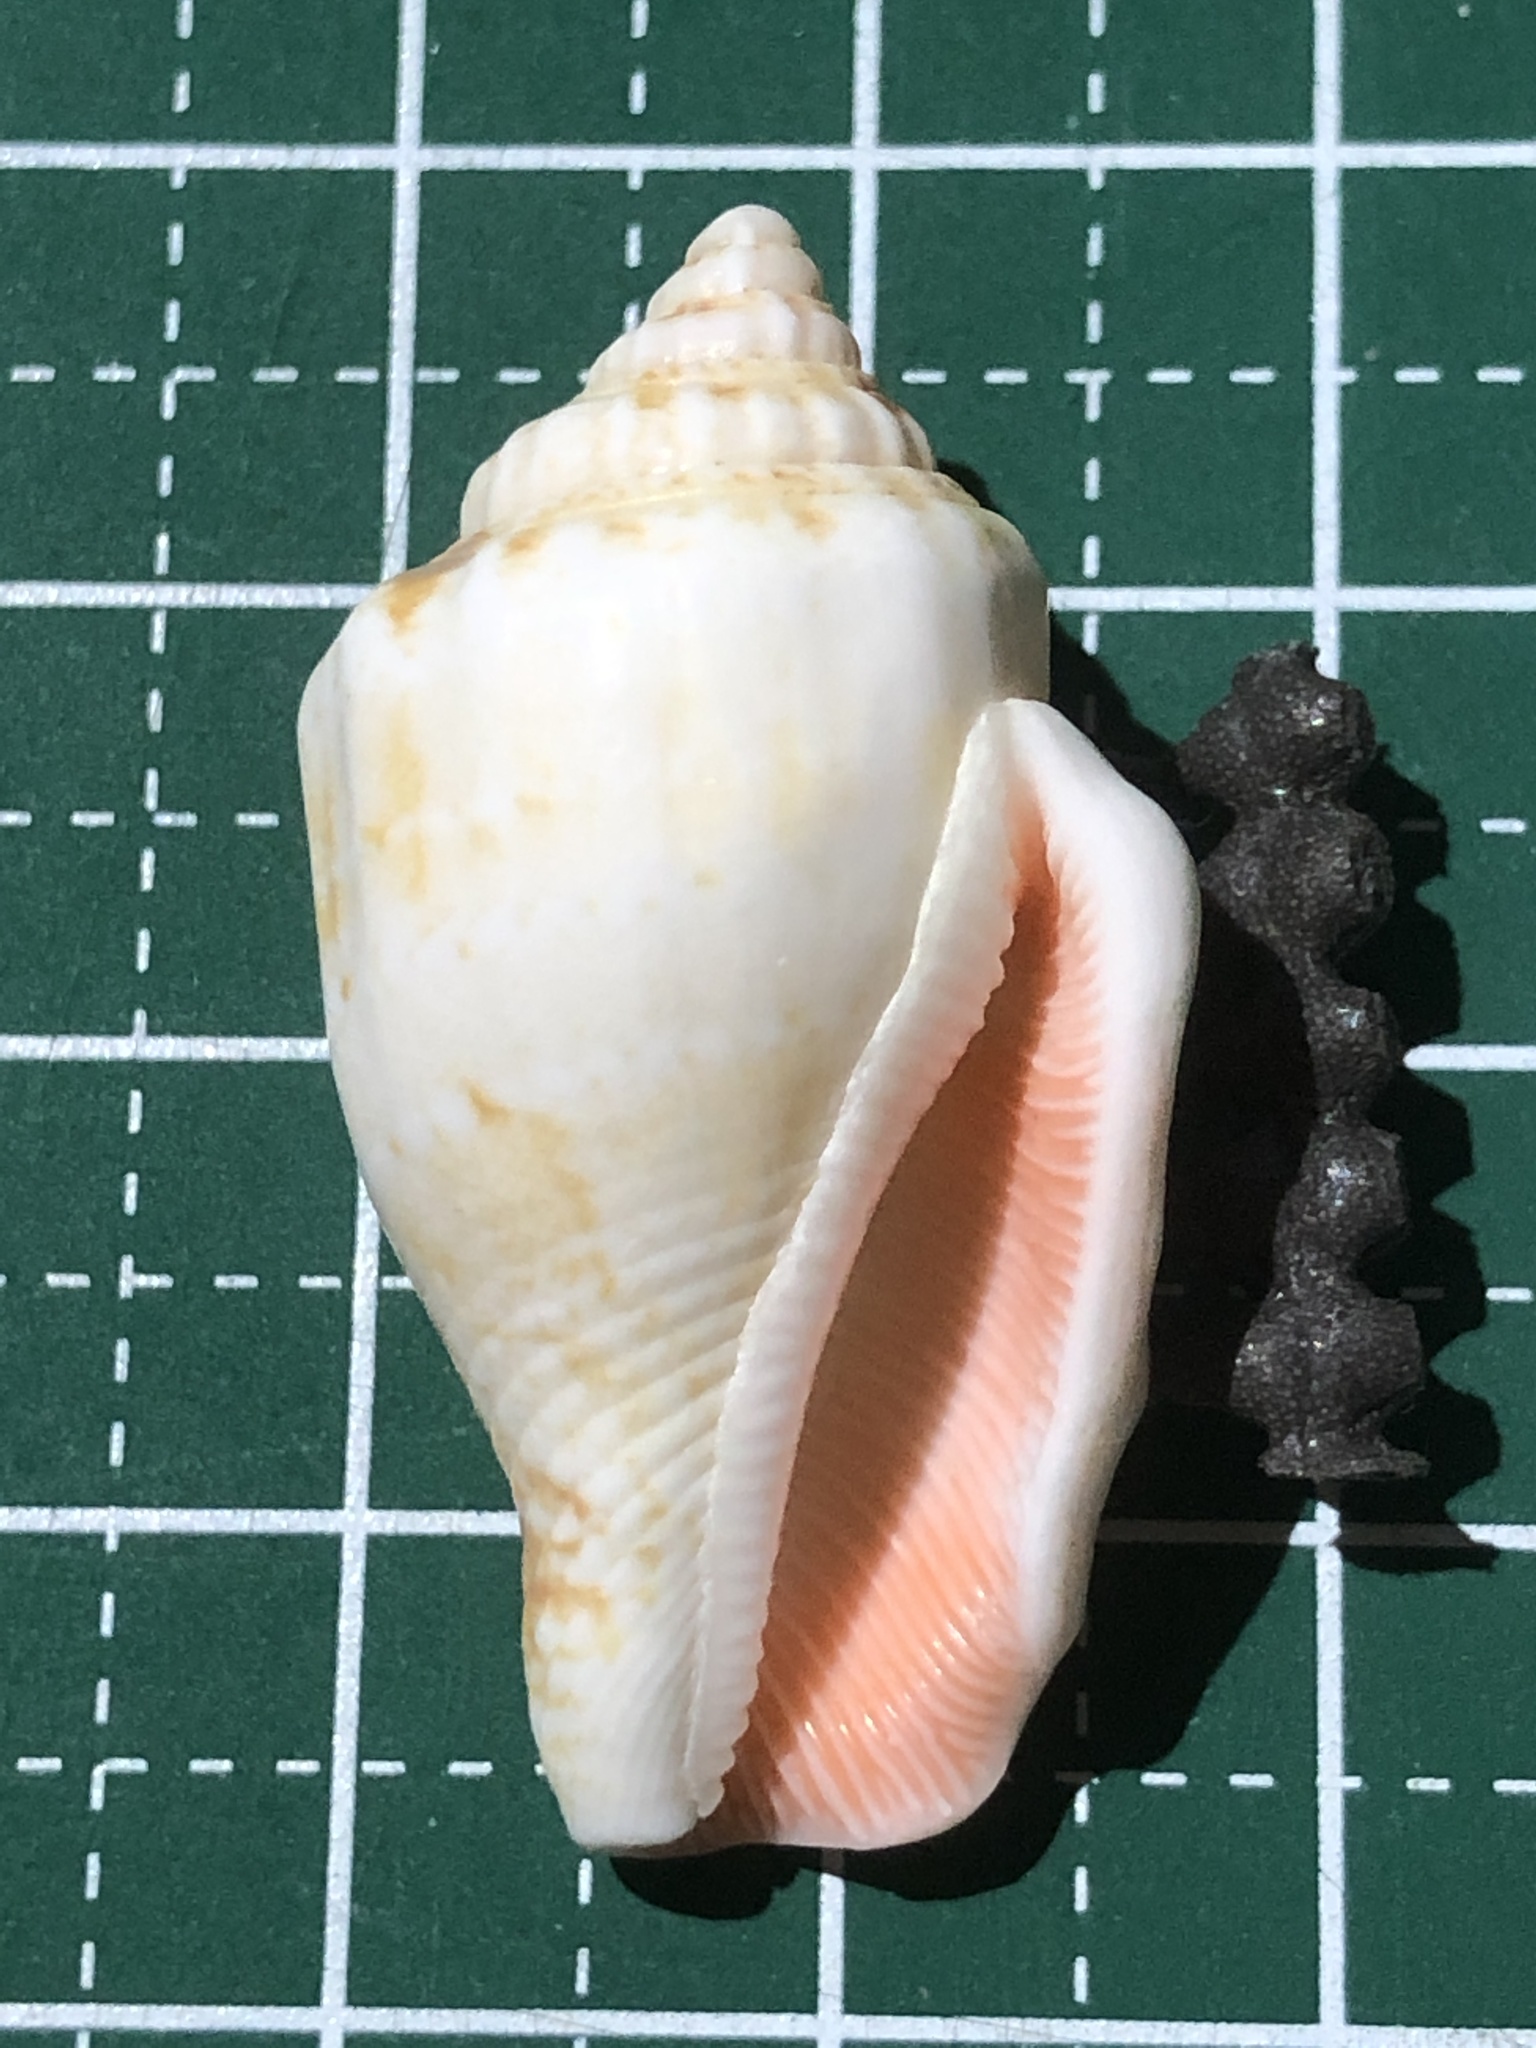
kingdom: Animalia
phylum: Mollusca
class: Gastropoda
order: Littorinimorpha
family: Strombidae
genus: Canarium
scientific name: Canarium mutabile
